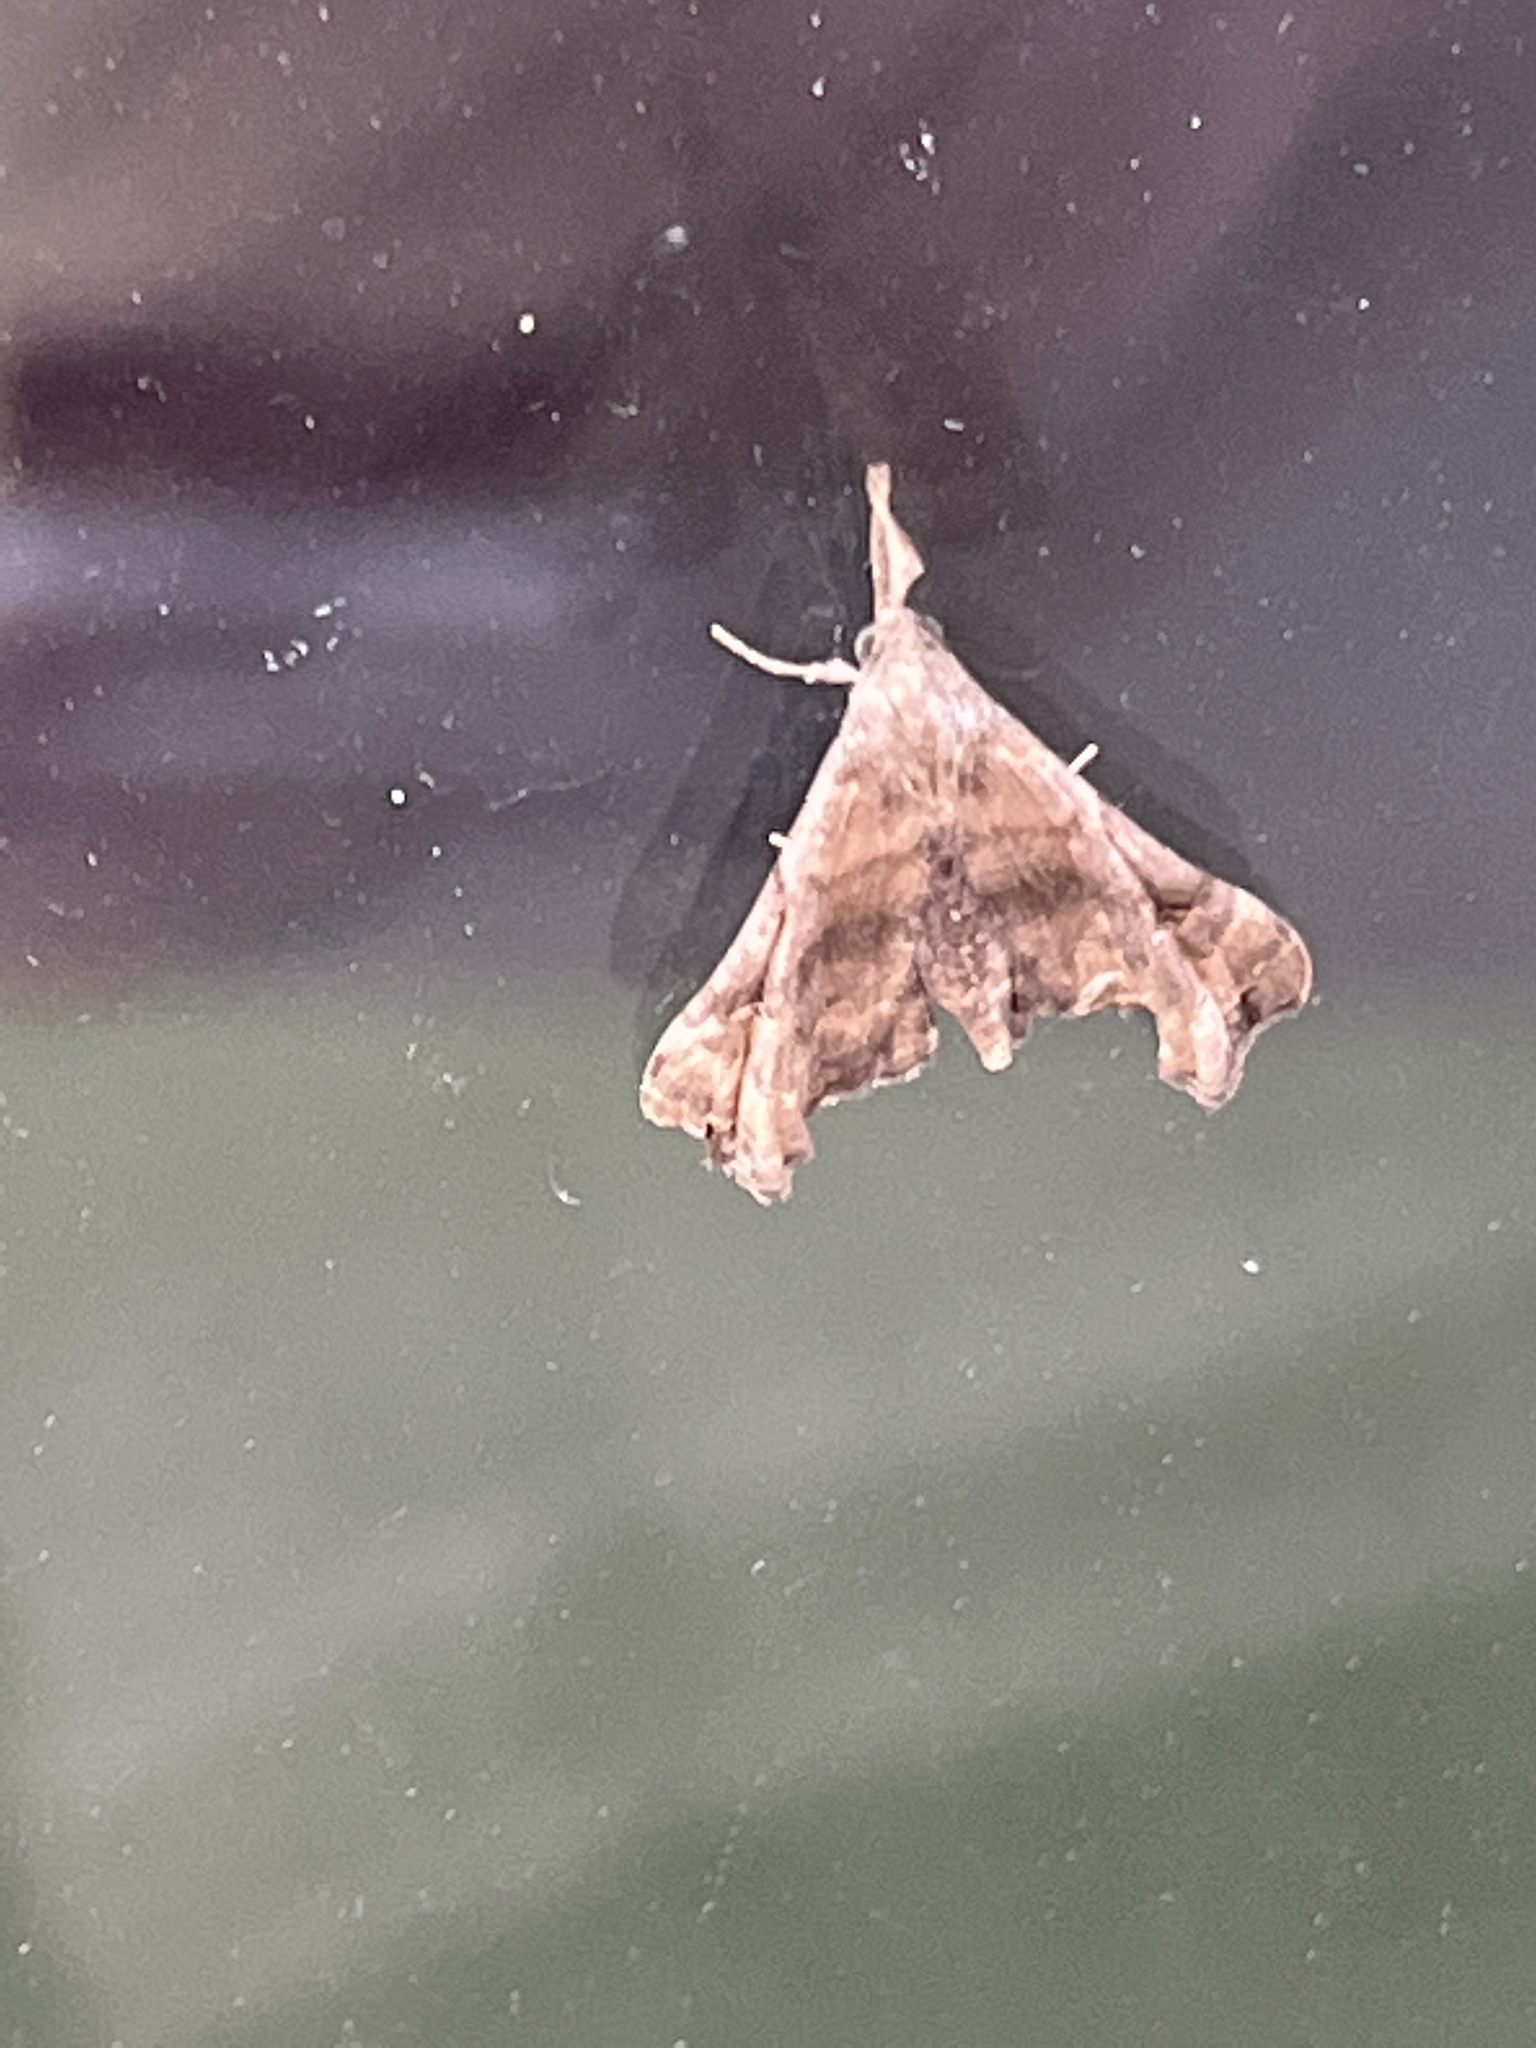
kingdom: Animalia
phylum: Arthropoda
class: Insecta
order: Lepidoptera
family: Erebidae
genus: Palthis
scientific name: Palthis asopialis
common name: Faint-spotted palthis moth
